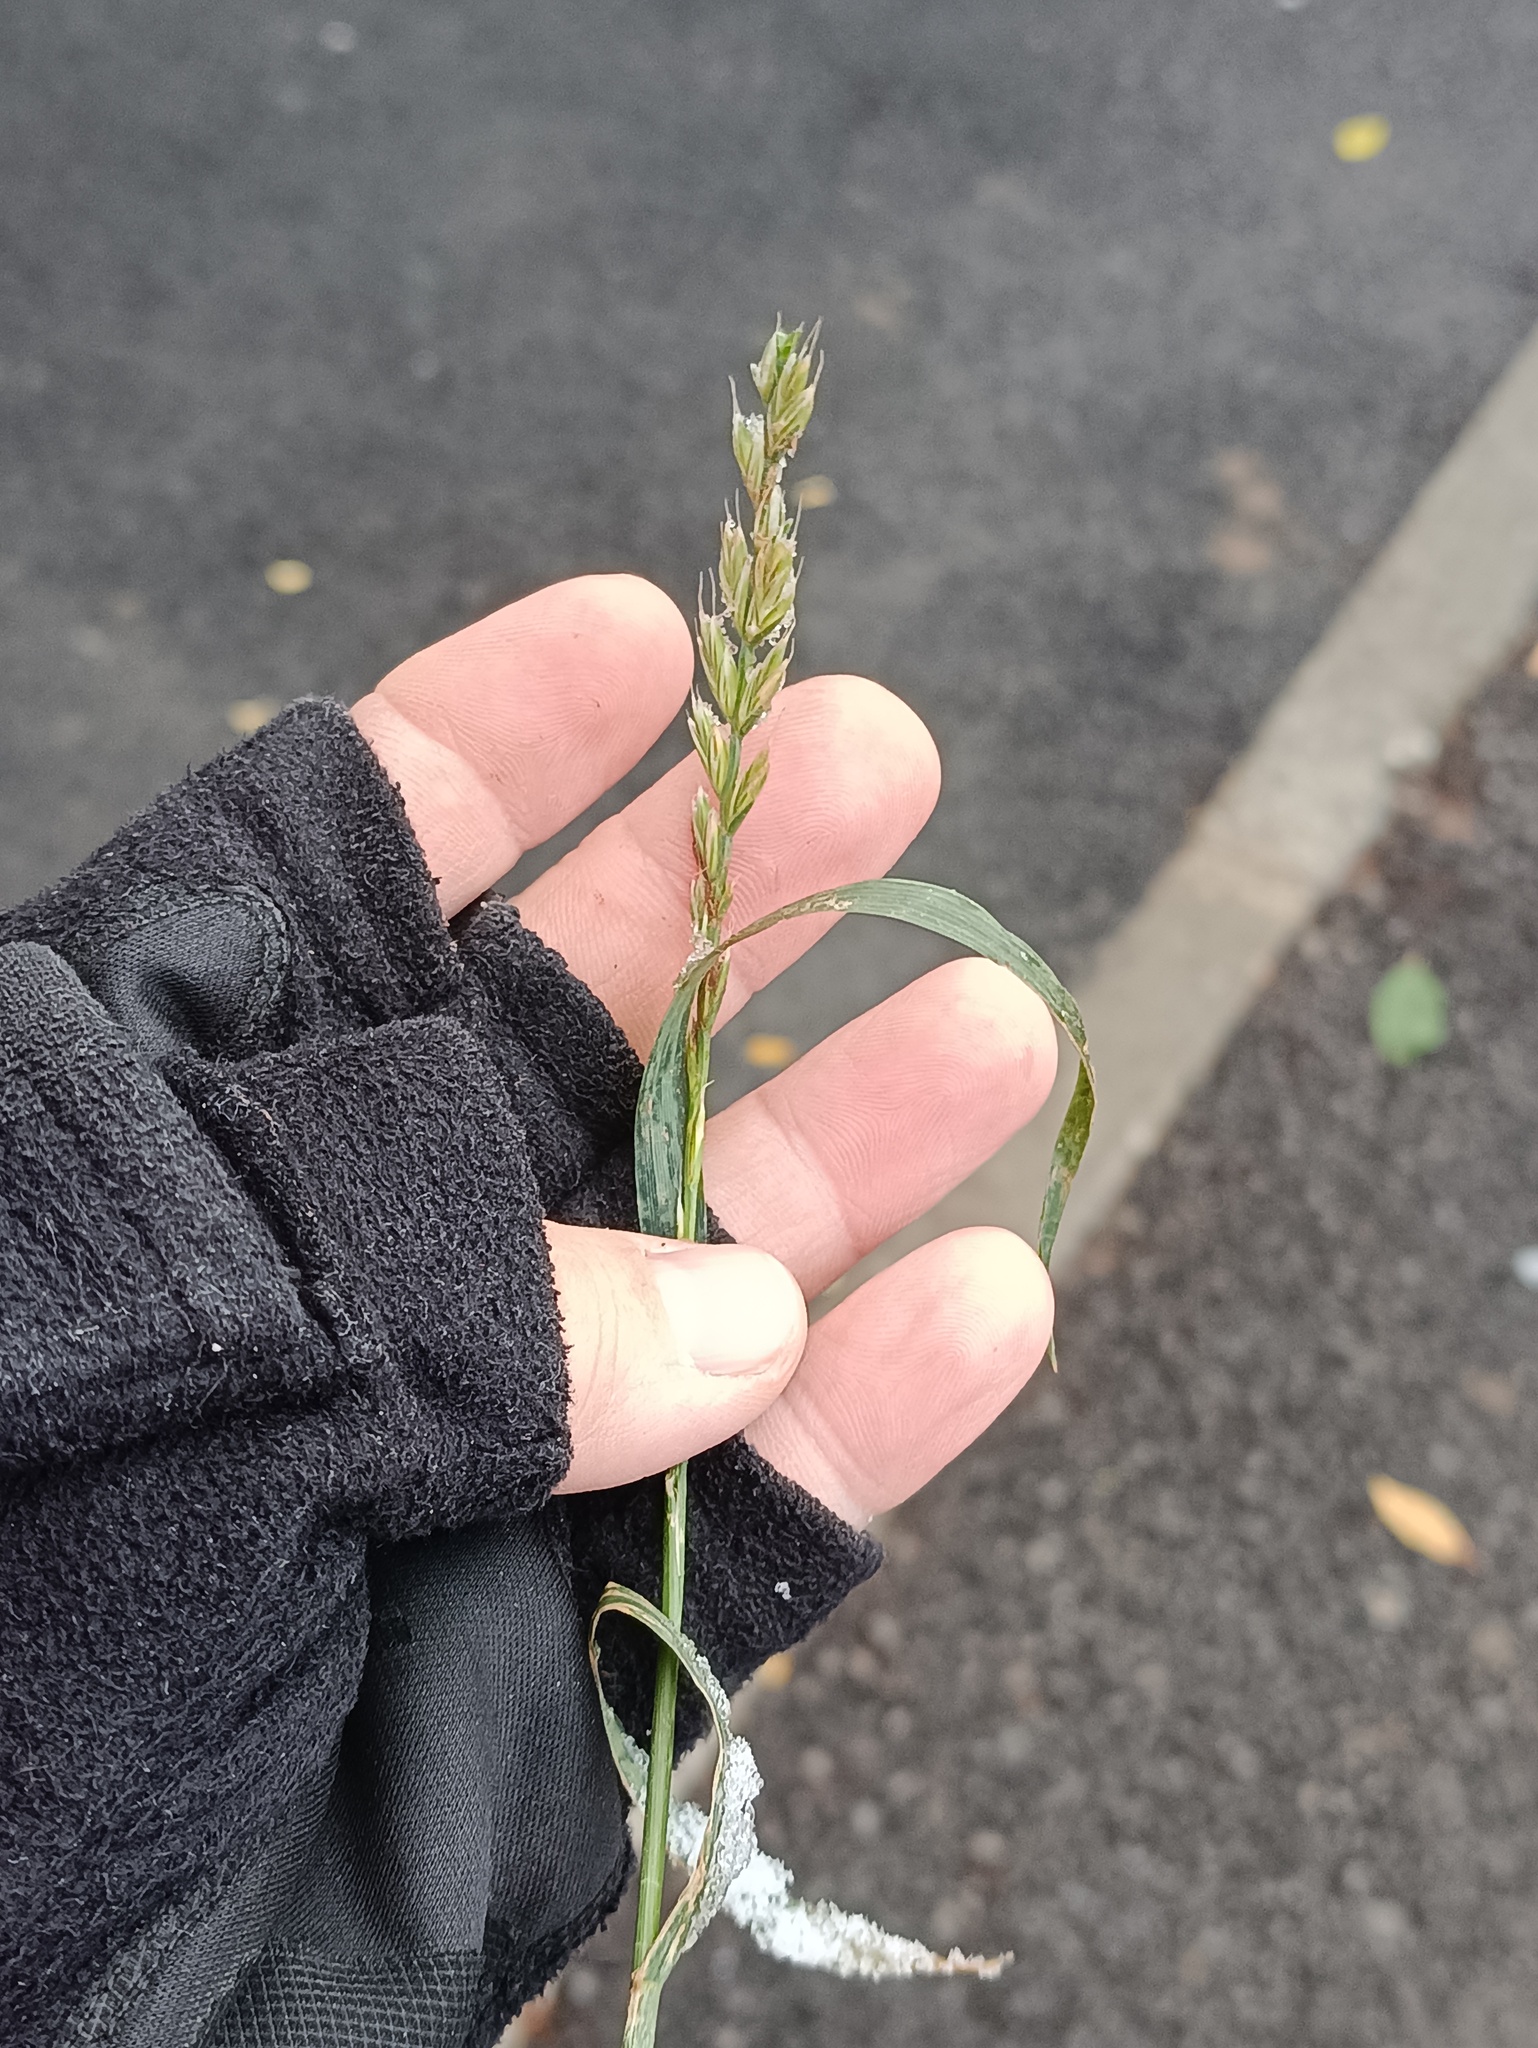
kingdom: Plantae
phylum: Tracheophyta
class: Liliopsida
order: Poales
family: Poaceae
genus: Lolium
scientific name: Lolium multiflorum
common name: Annual ryegrass
